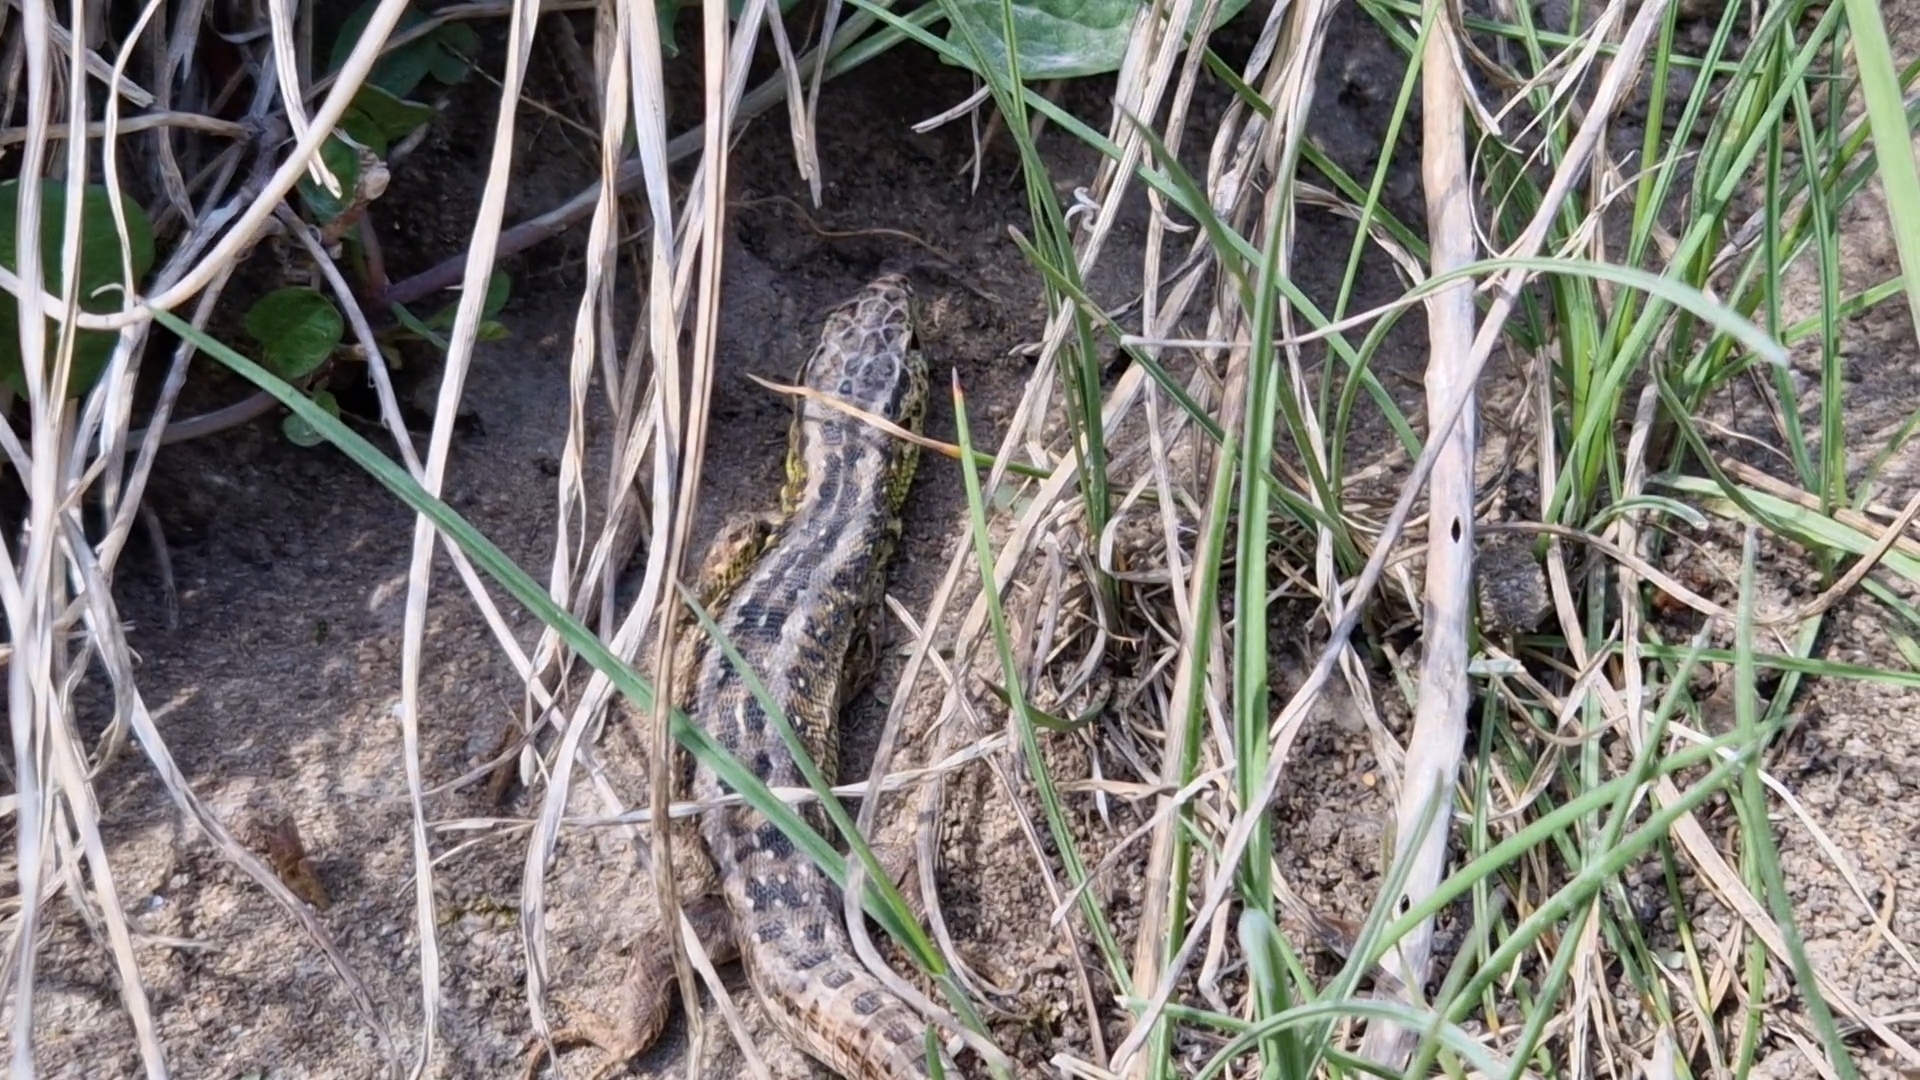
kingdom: Animalia
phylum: Chordata
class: Squamata
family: Lacertidae
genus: Lacerta
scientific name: Lacerta agilis
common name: Sand lizard
